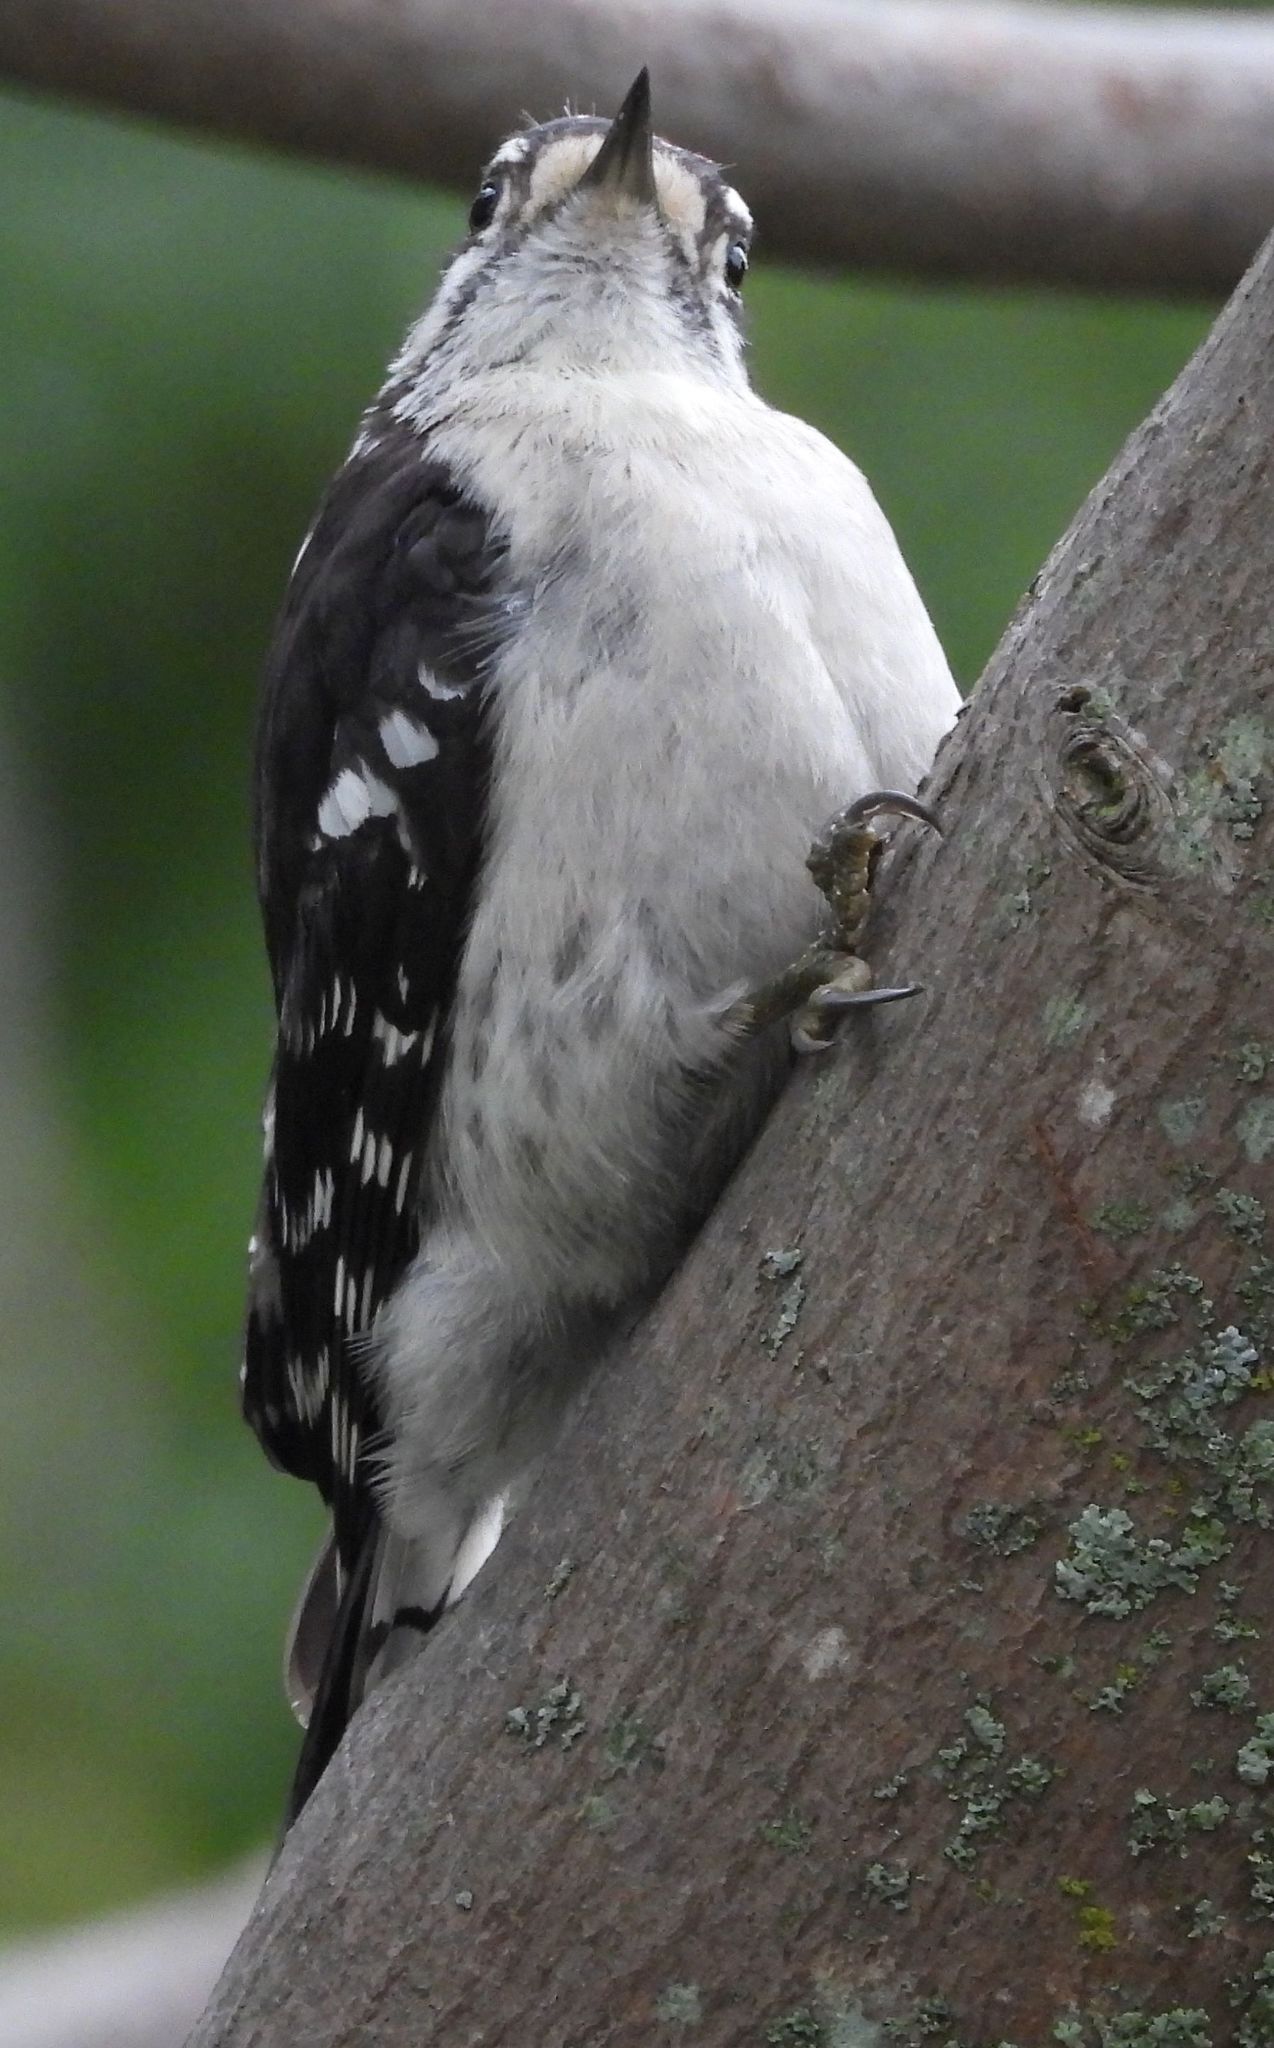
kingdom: Animalia
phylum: Chordata
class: Aves
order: Piciformes
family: Picidae
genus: Dryobates
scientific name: Dryobates pubescens
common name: Downy woodpecker
